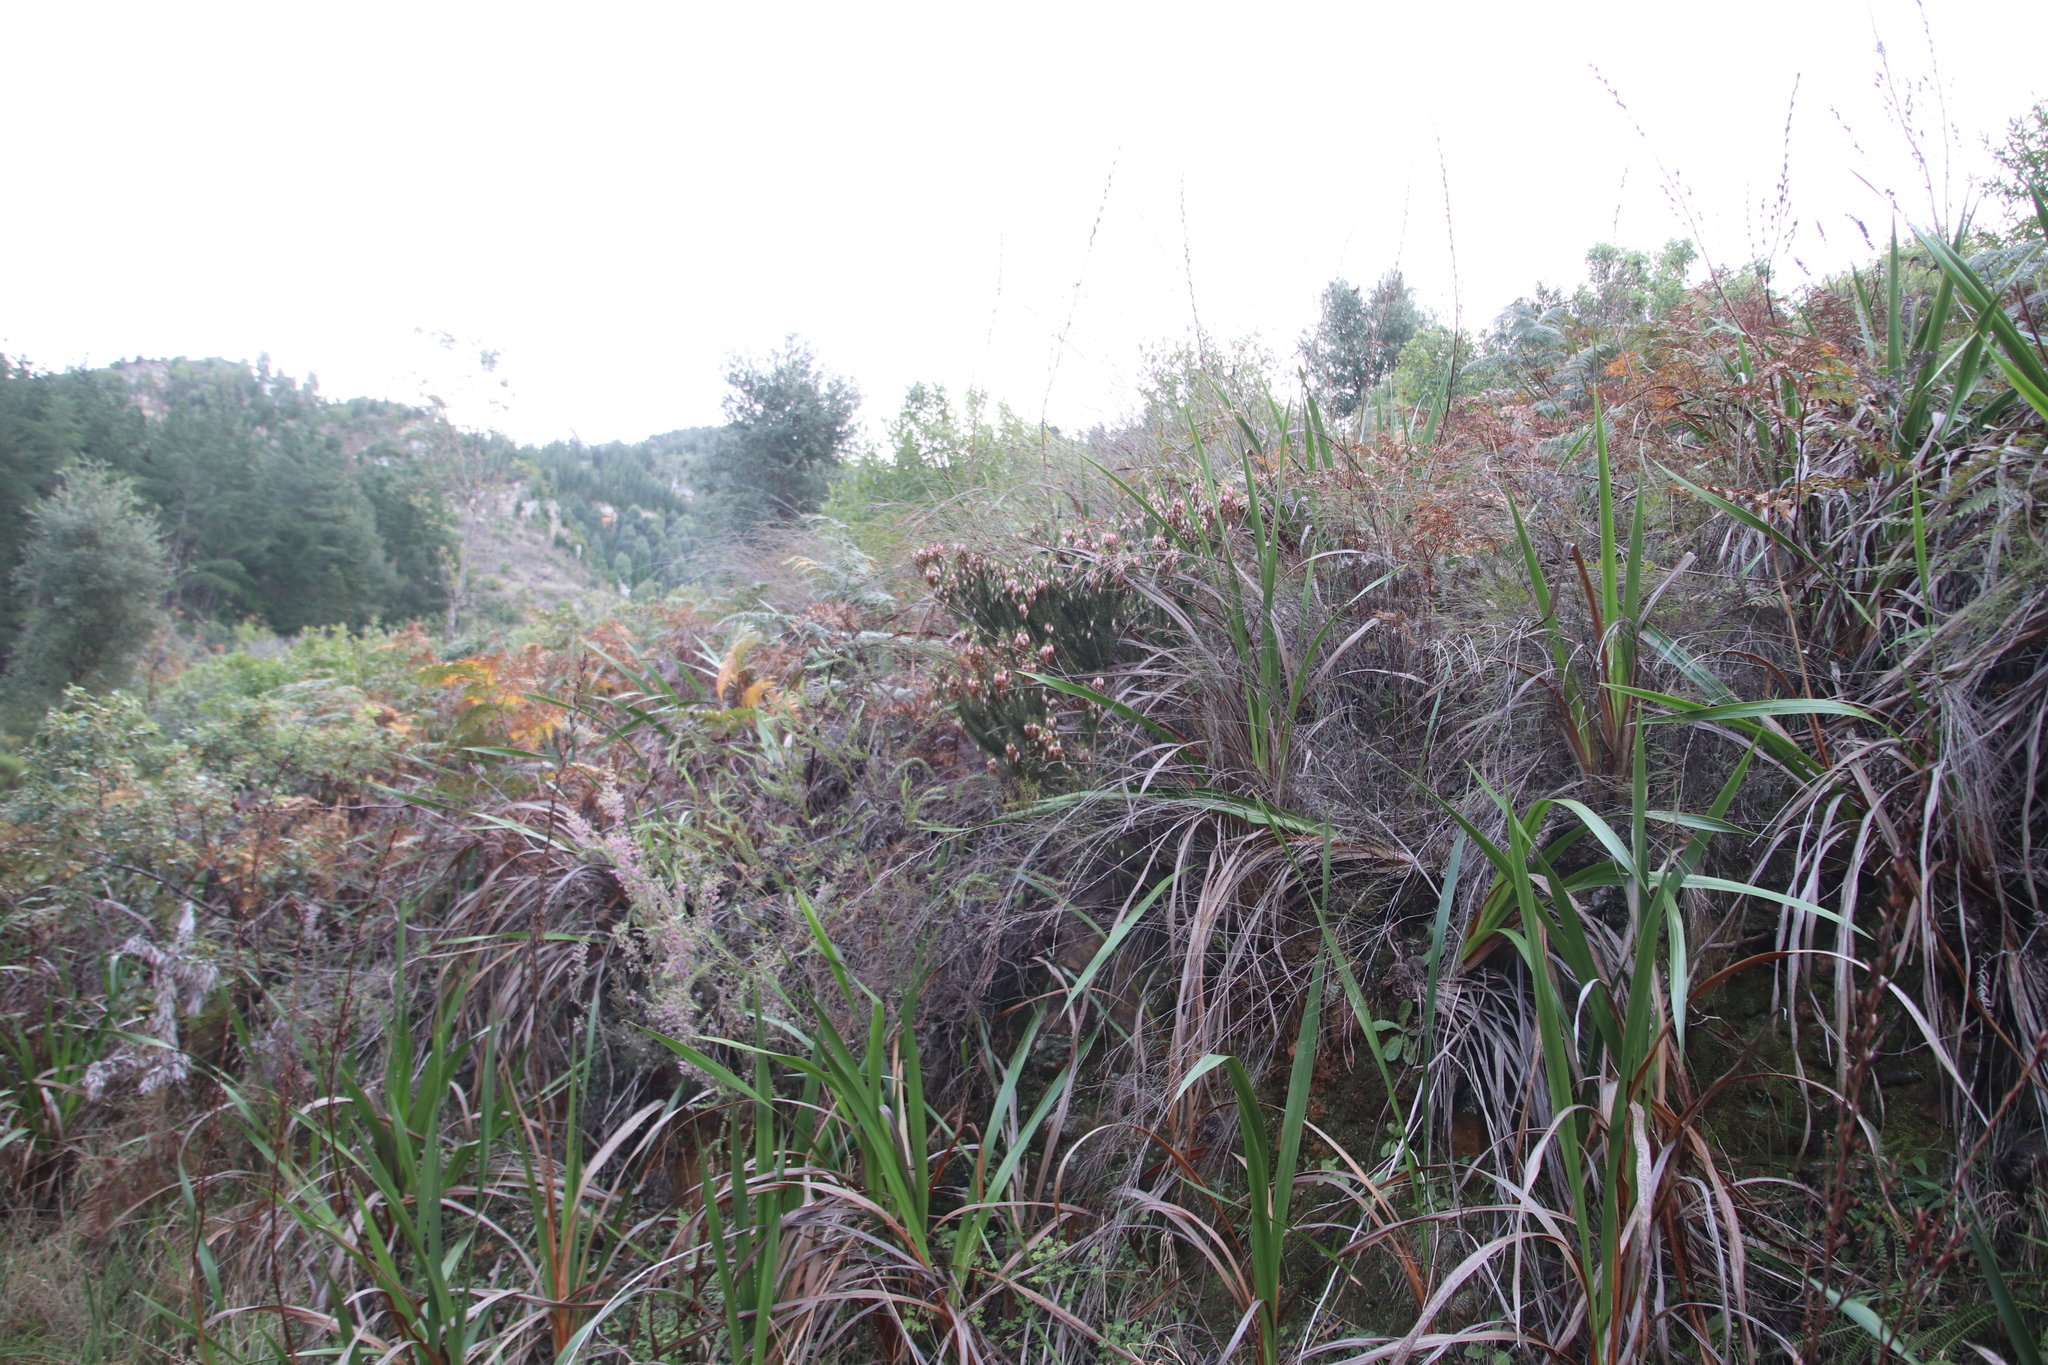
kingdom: Plantae
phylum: Tracheophyta
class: Magnoliopsida
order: Ericales
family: Ericaceae
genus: Erica
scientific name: Erica plukenetii
